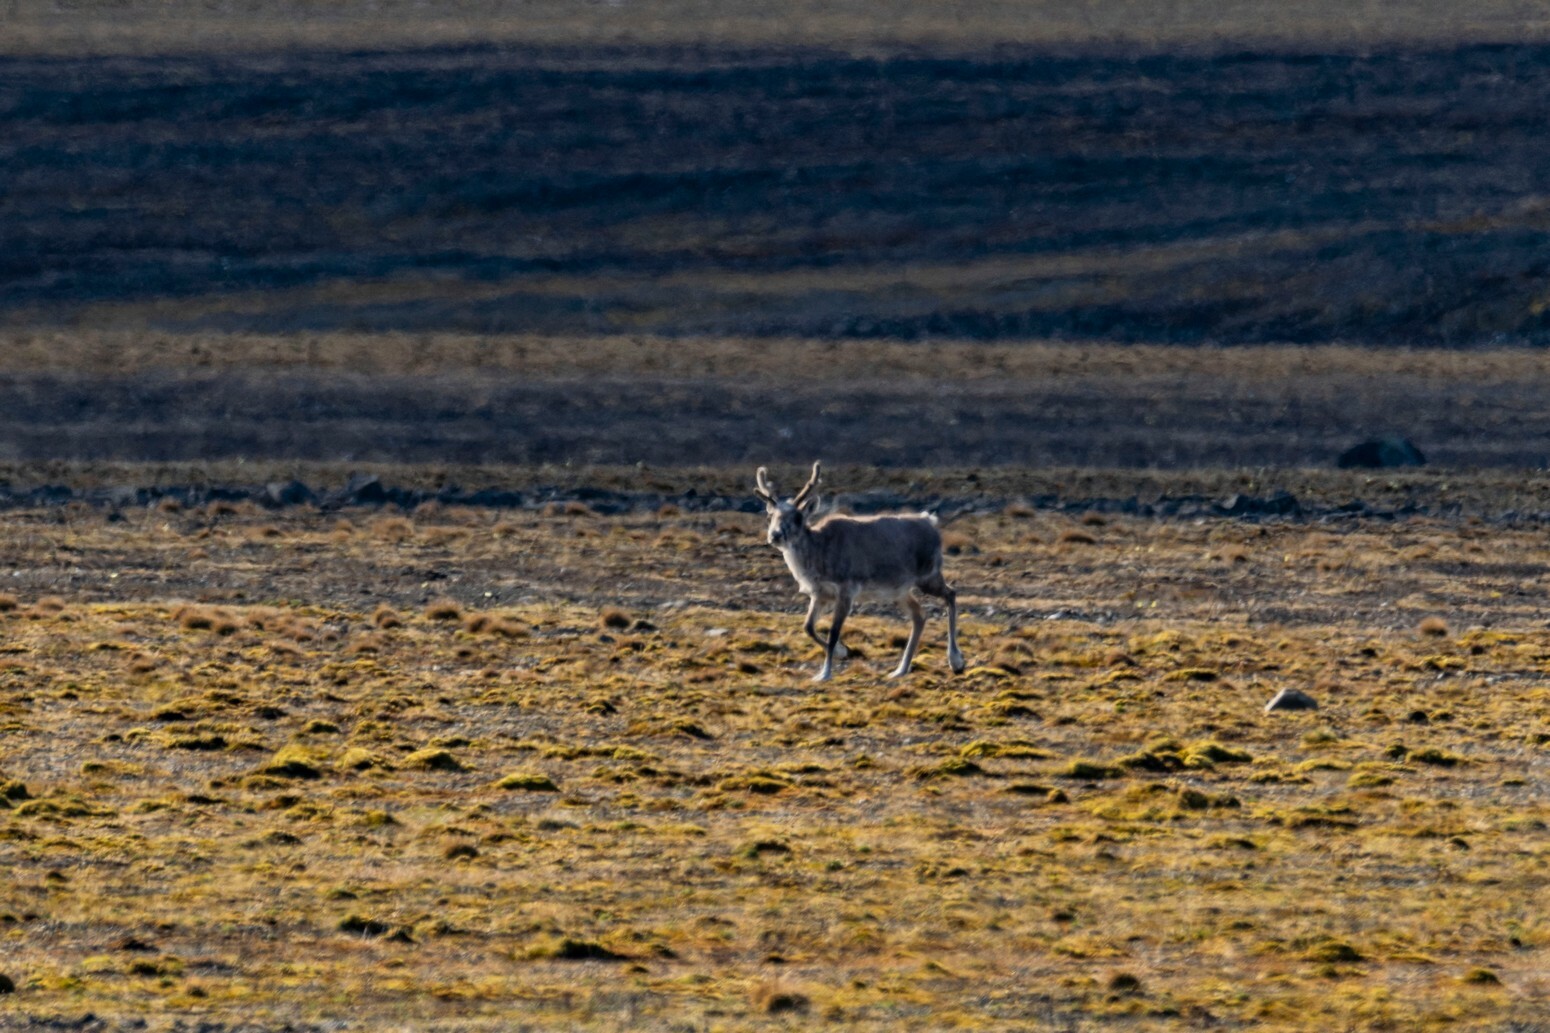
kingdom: Animalia
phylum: Chordata
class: Mammalia
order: Artiodactyla
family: Cervidae
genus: Rangifer
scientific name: Rangifer tarandus
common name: Reindeer
